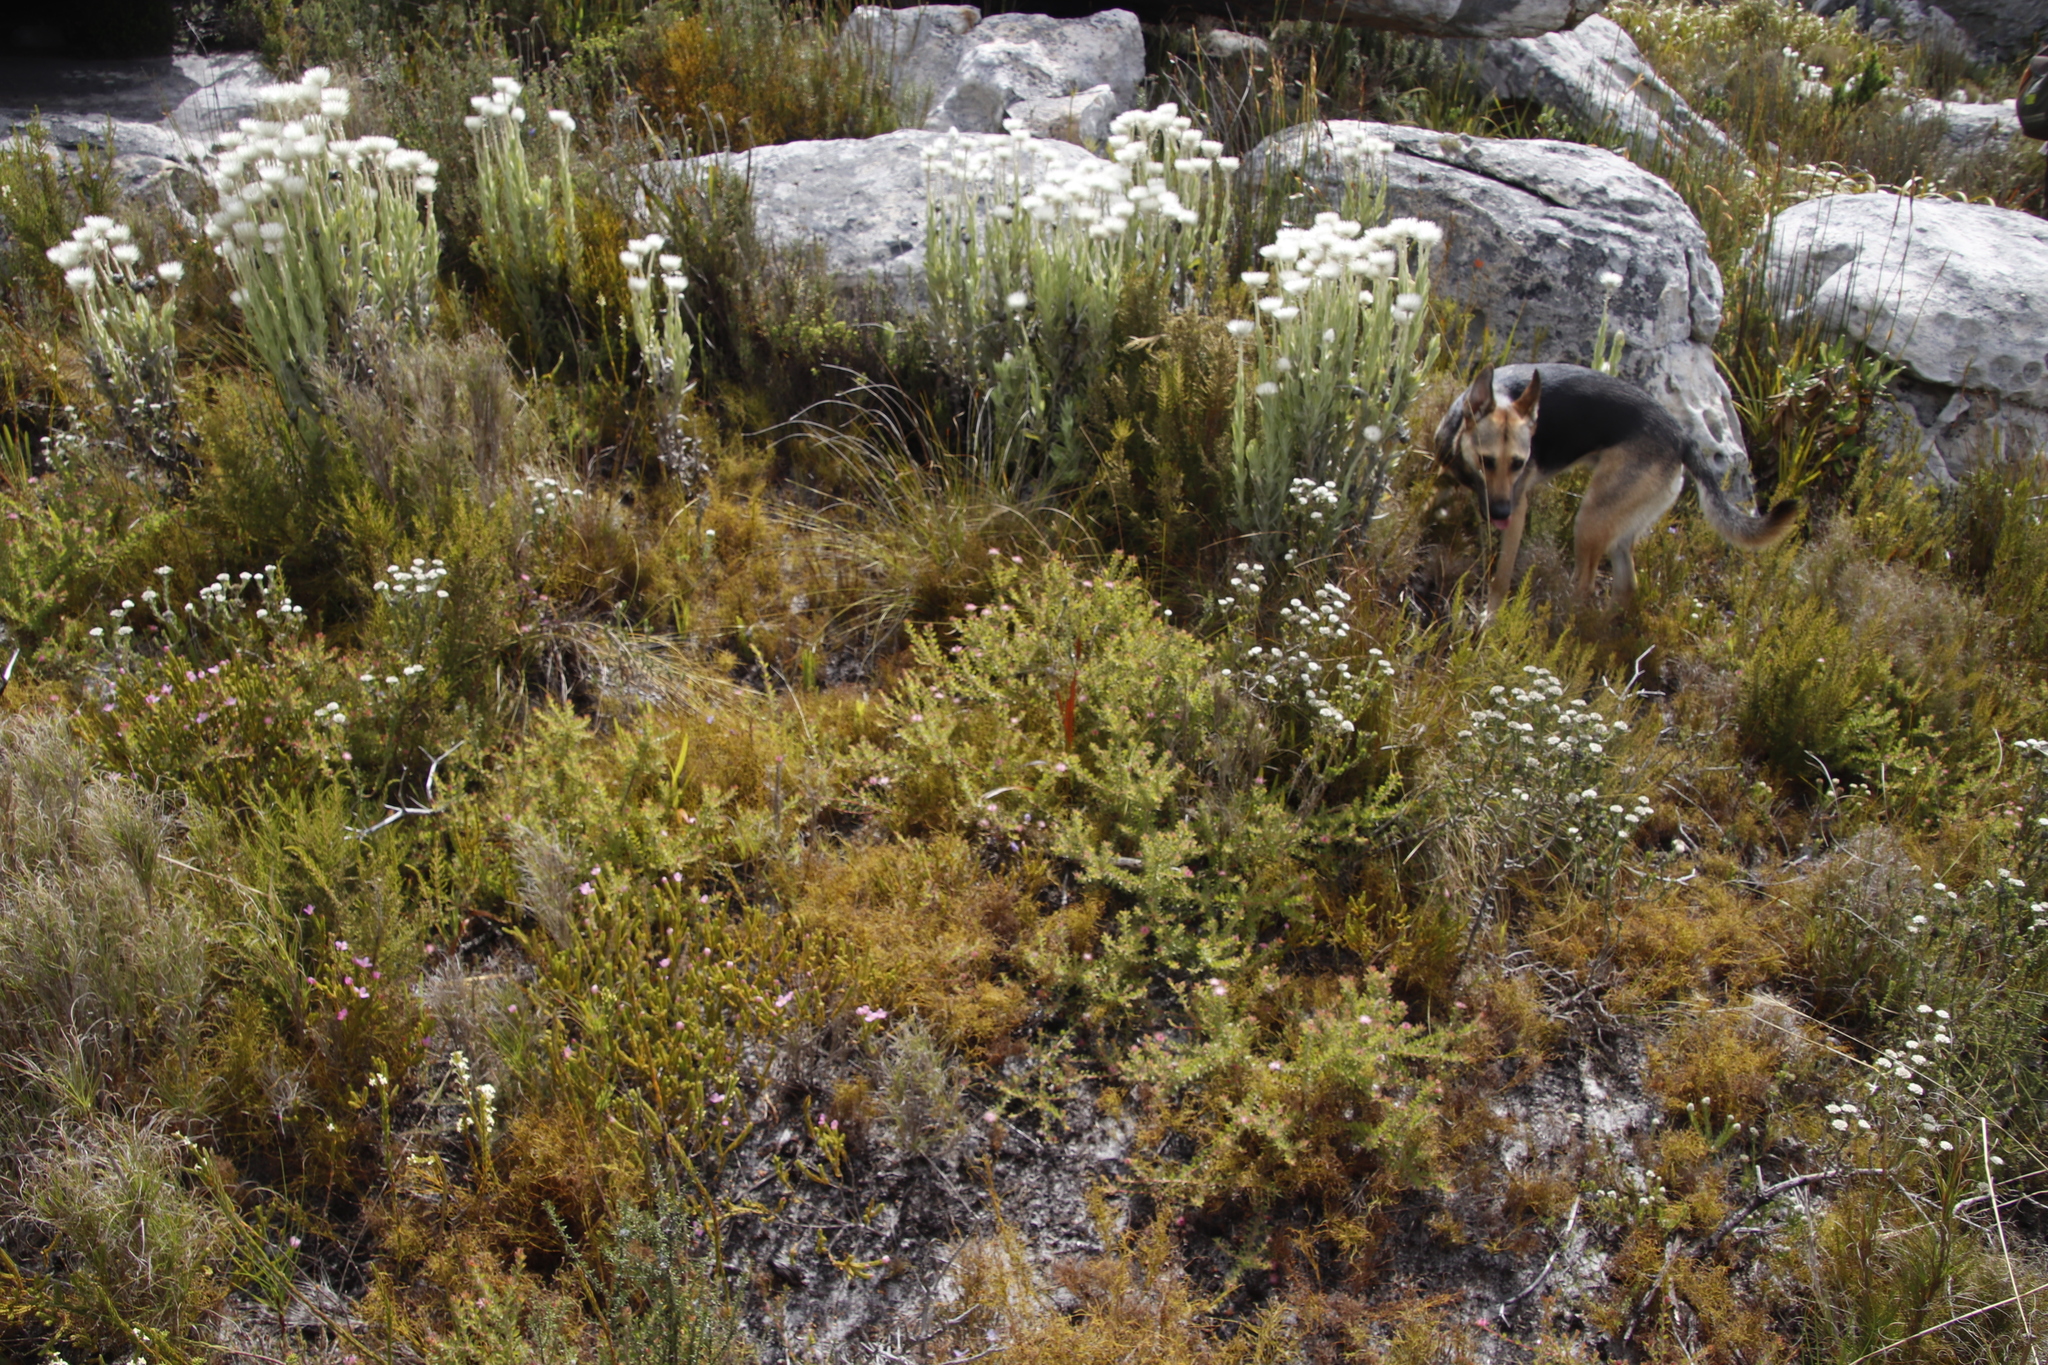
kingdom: Plantae
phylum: Tracheophyta
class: Magnoliopsida
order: Proteales
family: Proteaceae
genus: Diastella
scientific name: Diastella divaricata
